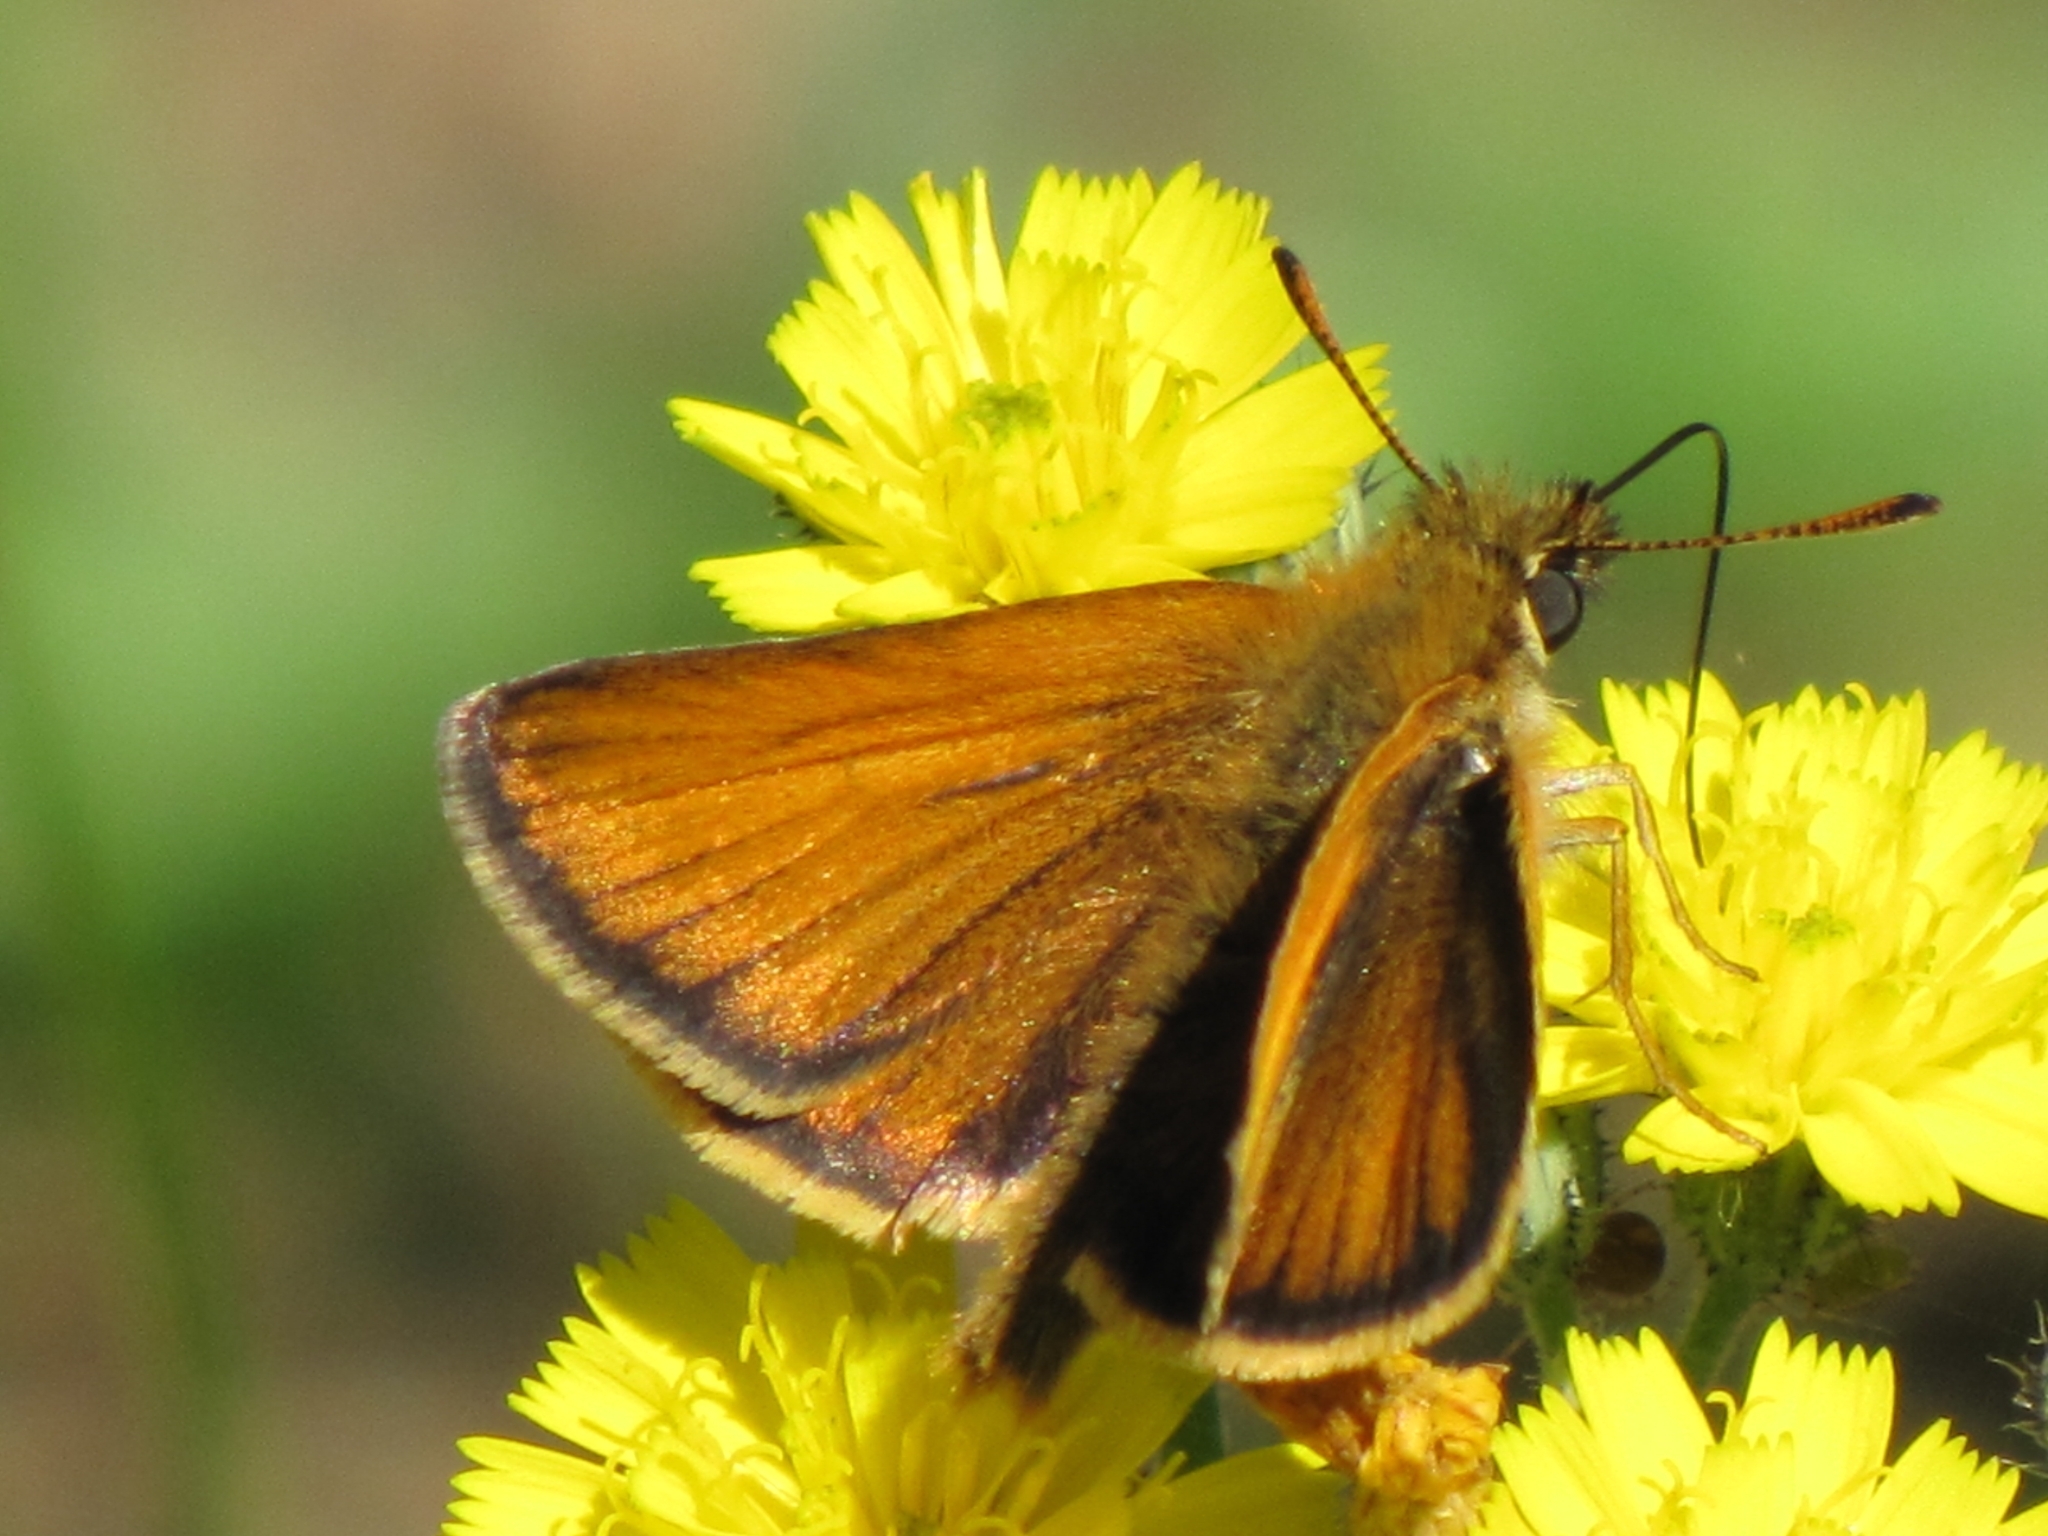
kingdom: Animalia
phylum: Arthropoda
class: Insecta
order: Lepidoptera
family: Hesperiidae
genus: Thymelicus
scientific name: Thymelicus lineola
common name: Essex skipper
